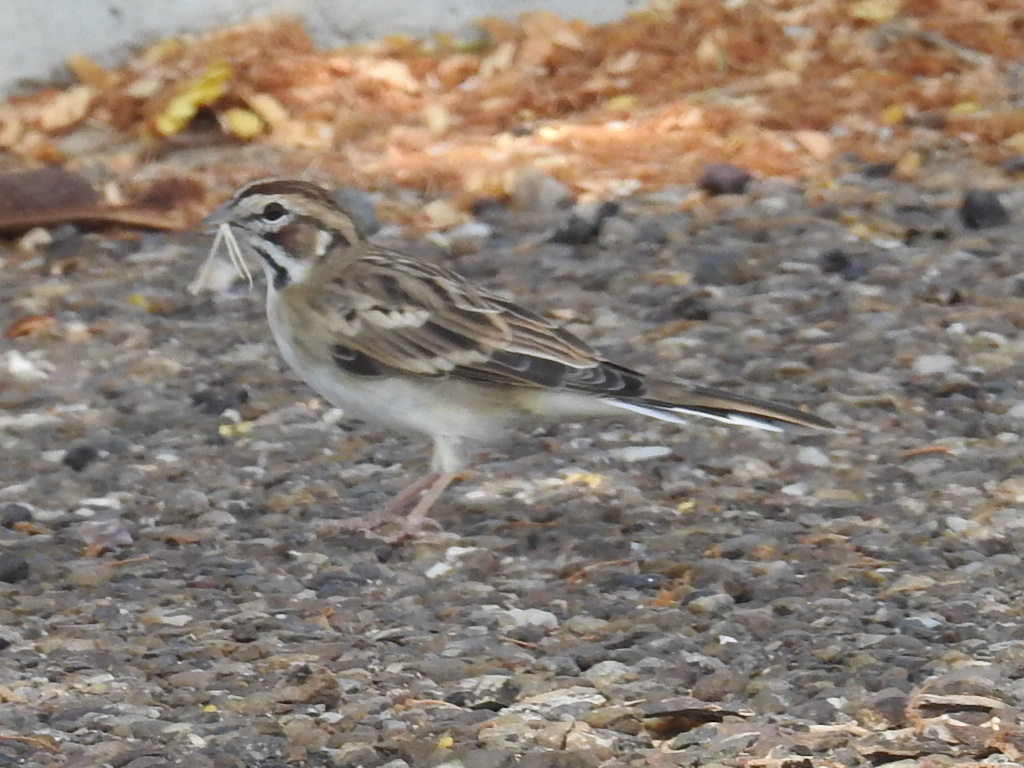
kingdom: Animalia
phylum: Chordata
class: Aves
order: Passeriformes
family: Passerellidae
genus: Chondestes
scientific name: Chondestes grammacus
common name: Lark sparrow
